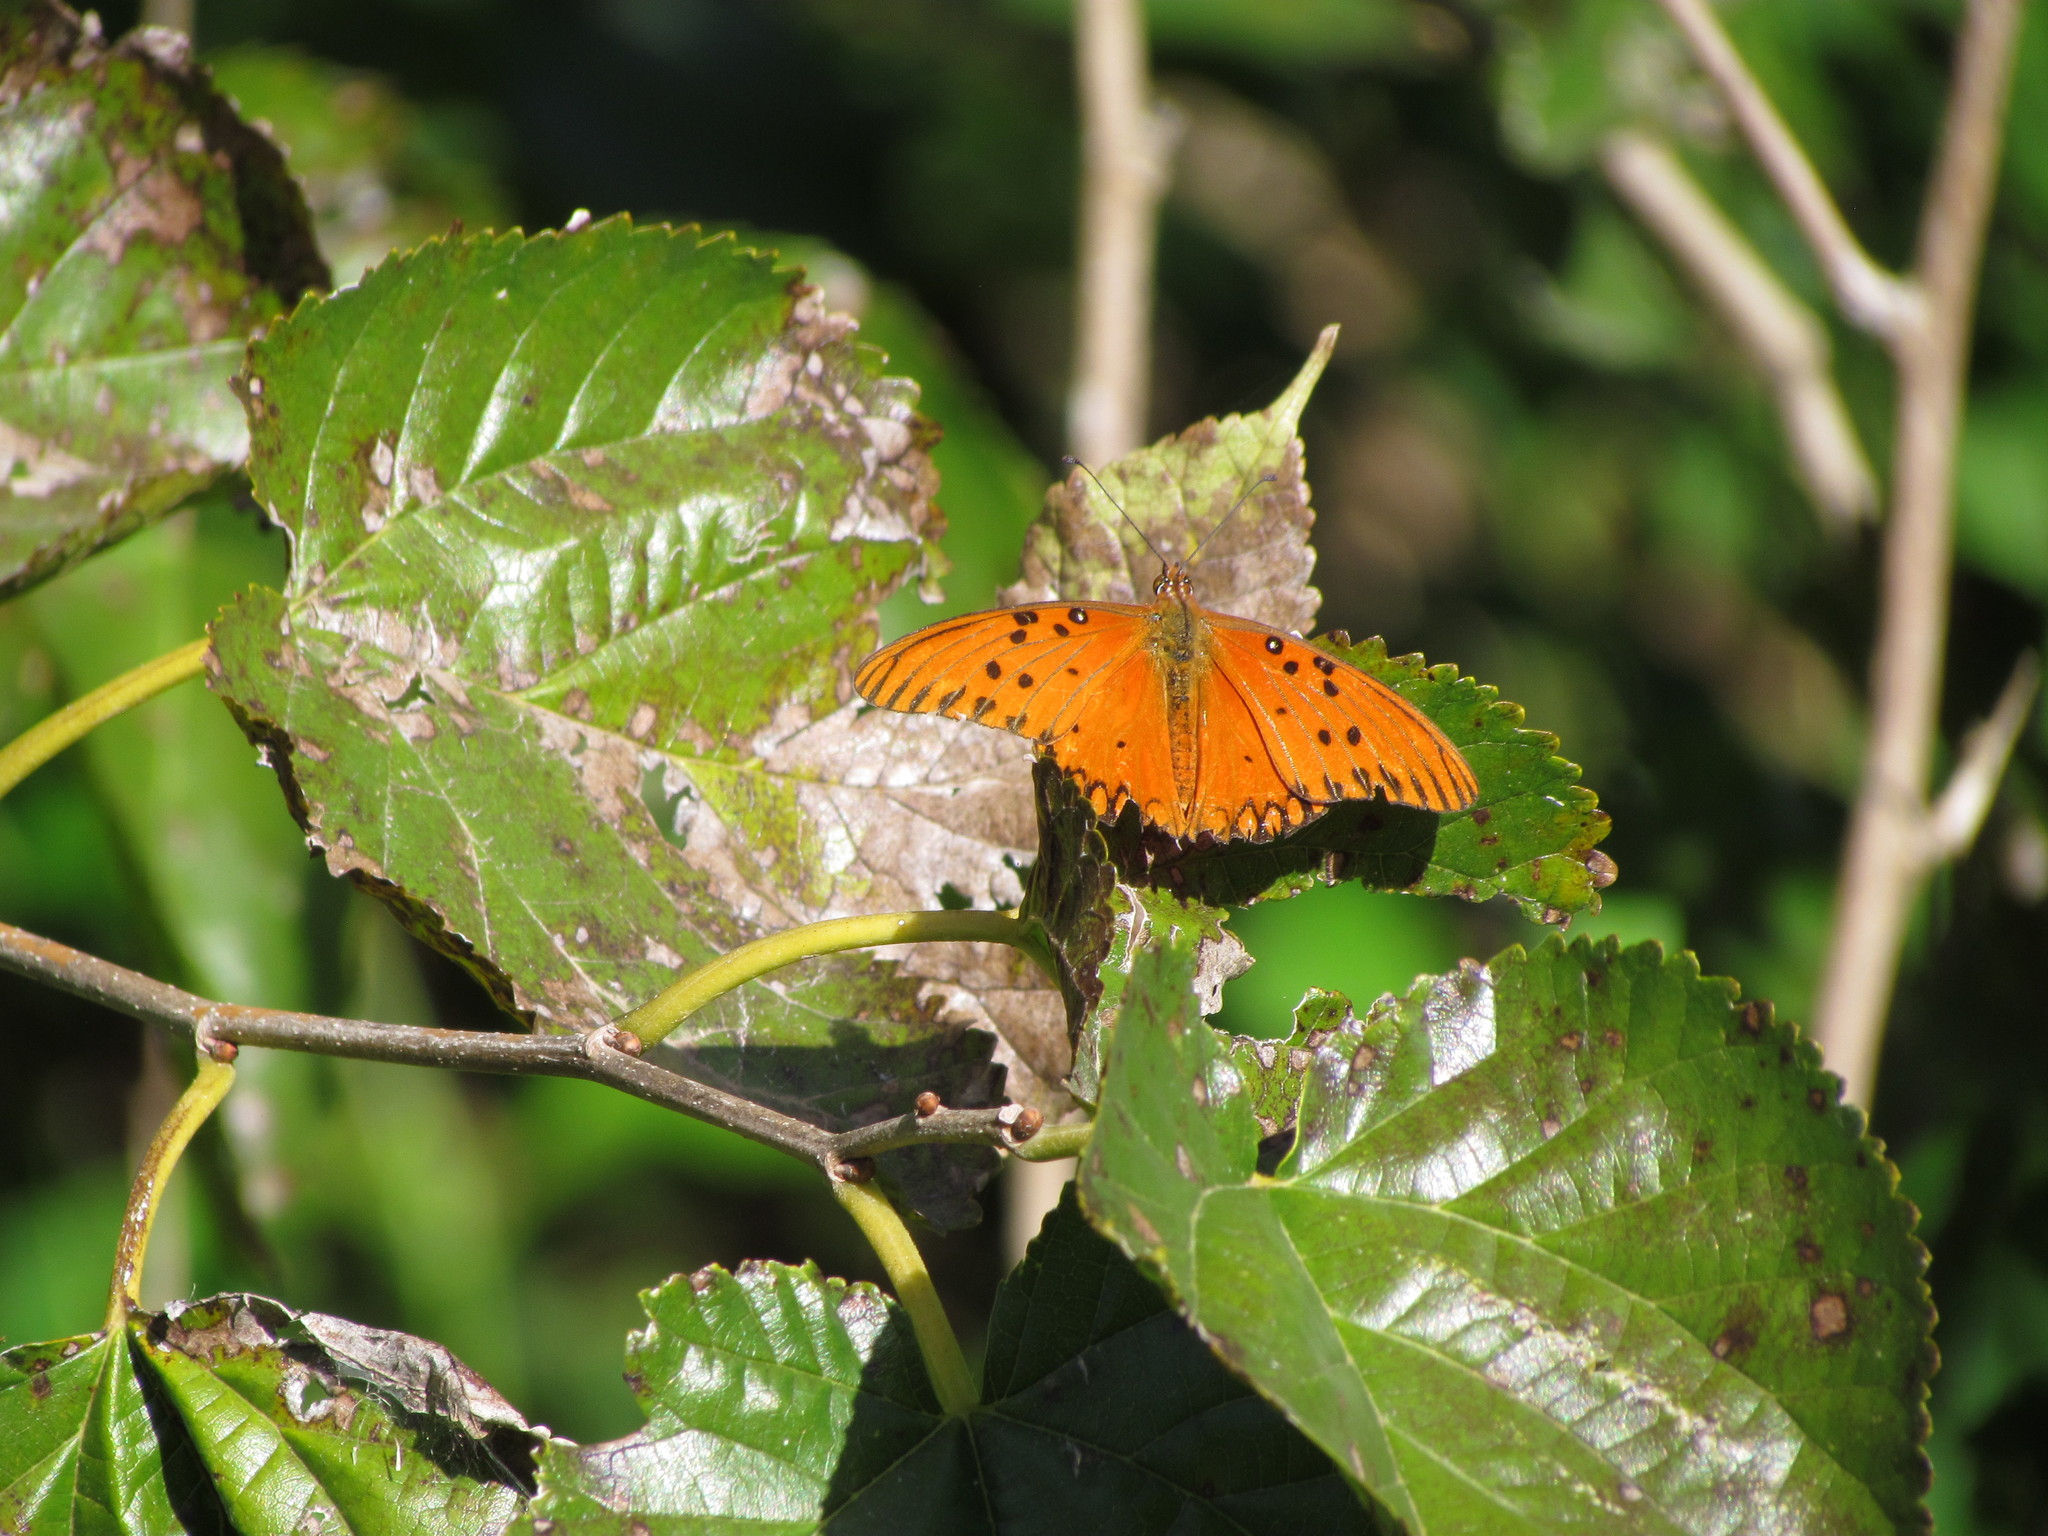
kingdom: Animalia
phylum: Arthropoda
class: Insecta
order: Lepidoptera
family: Nymphalidae
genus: Dione
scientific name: Dione vanillae
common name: Gulf fritillary
